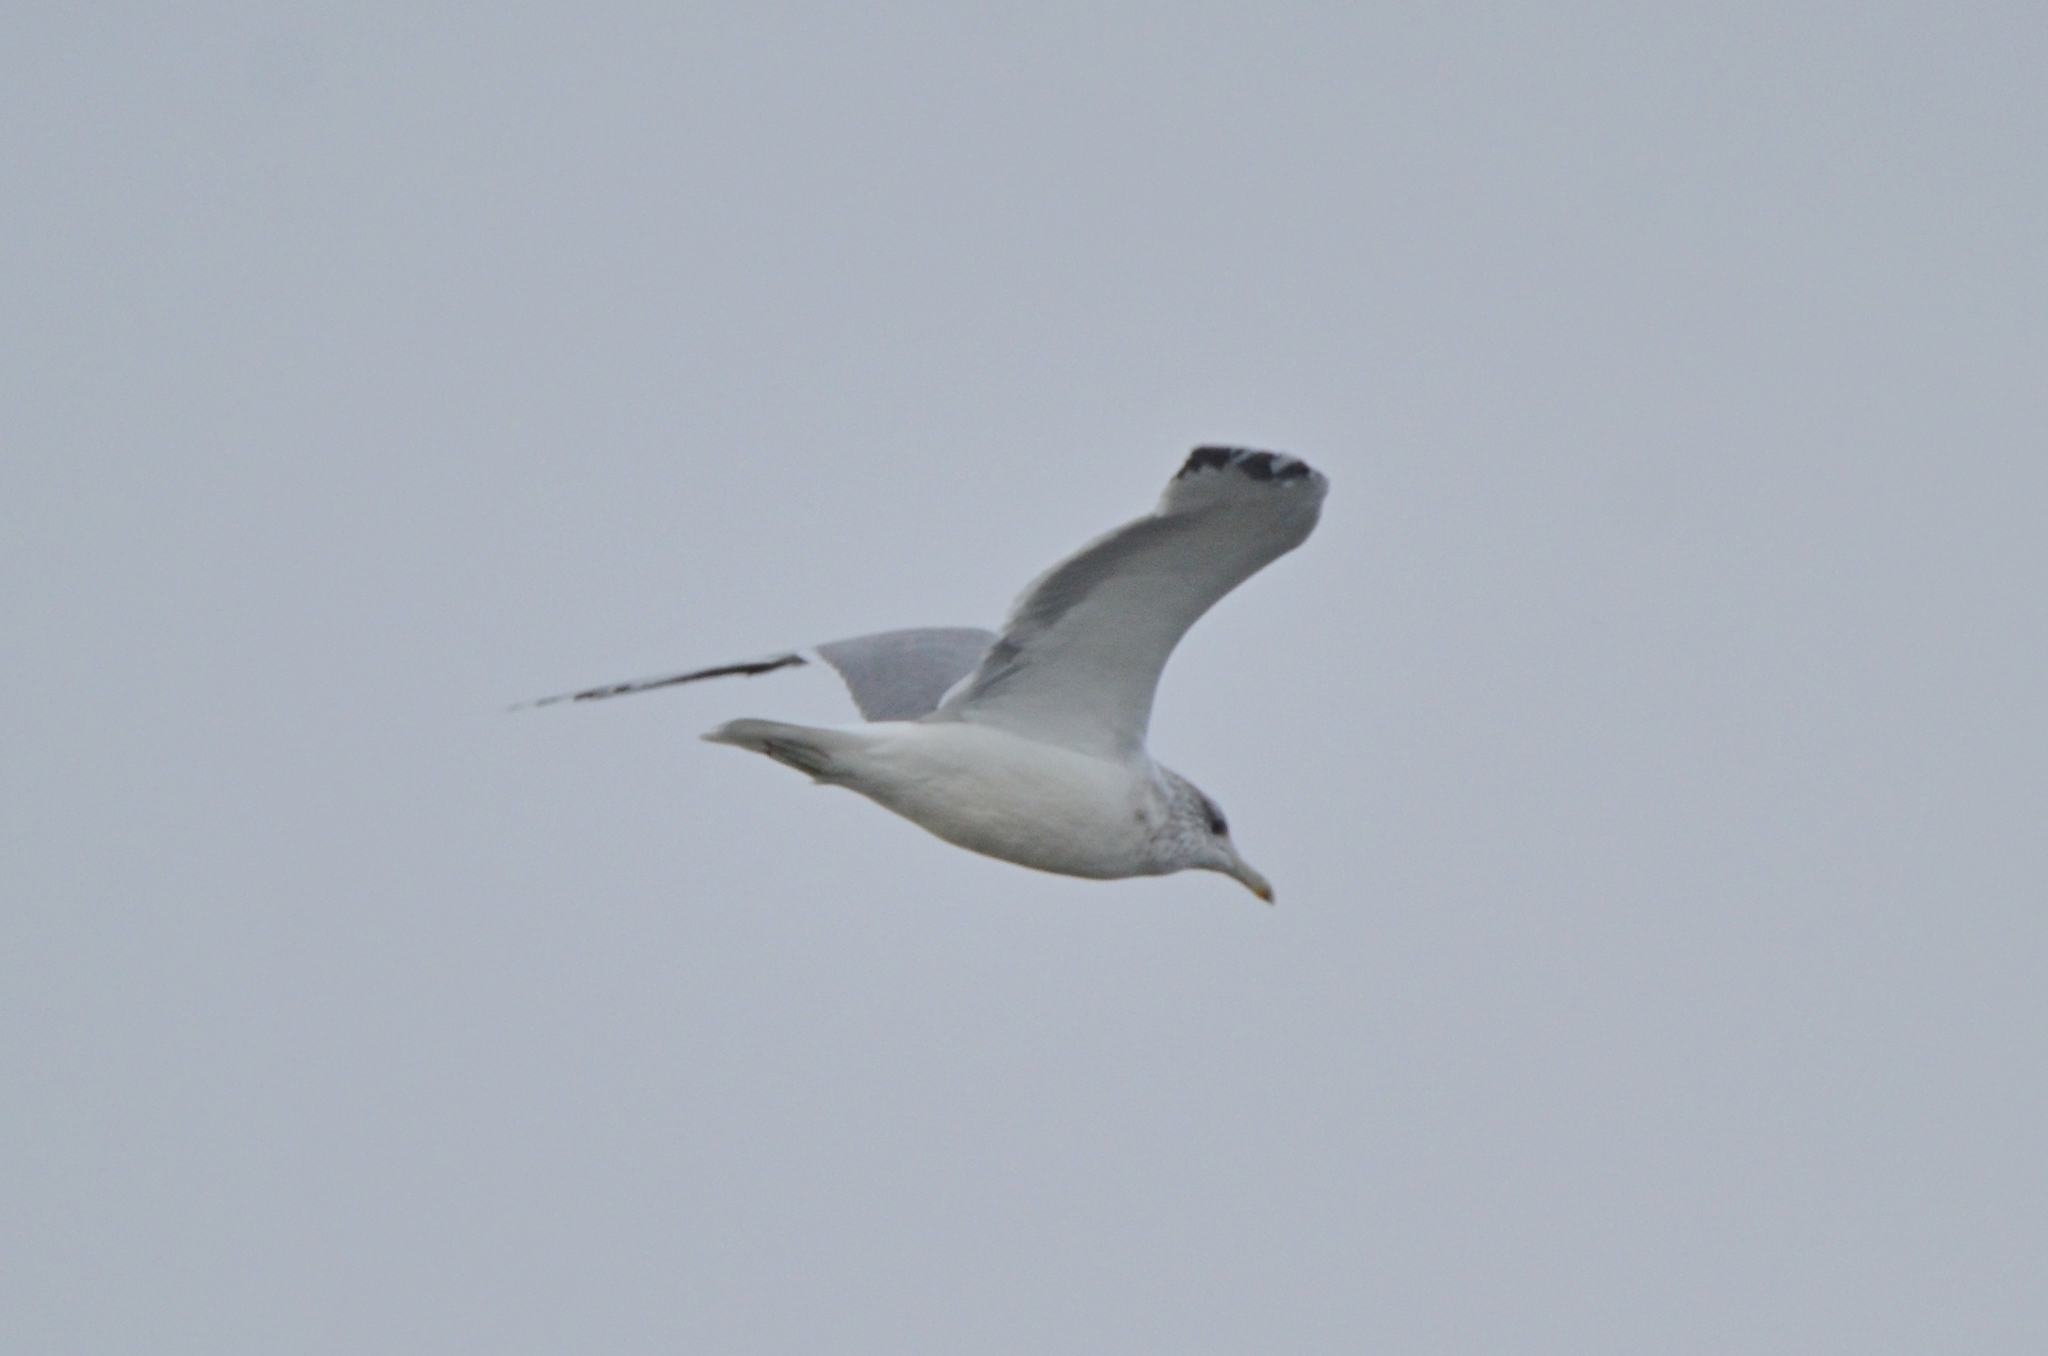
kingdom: Animalia
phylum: Chordata
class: Aves
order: Charadriiformes
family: Laridae
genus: Larus
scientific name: Larus californicus
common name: California gull
